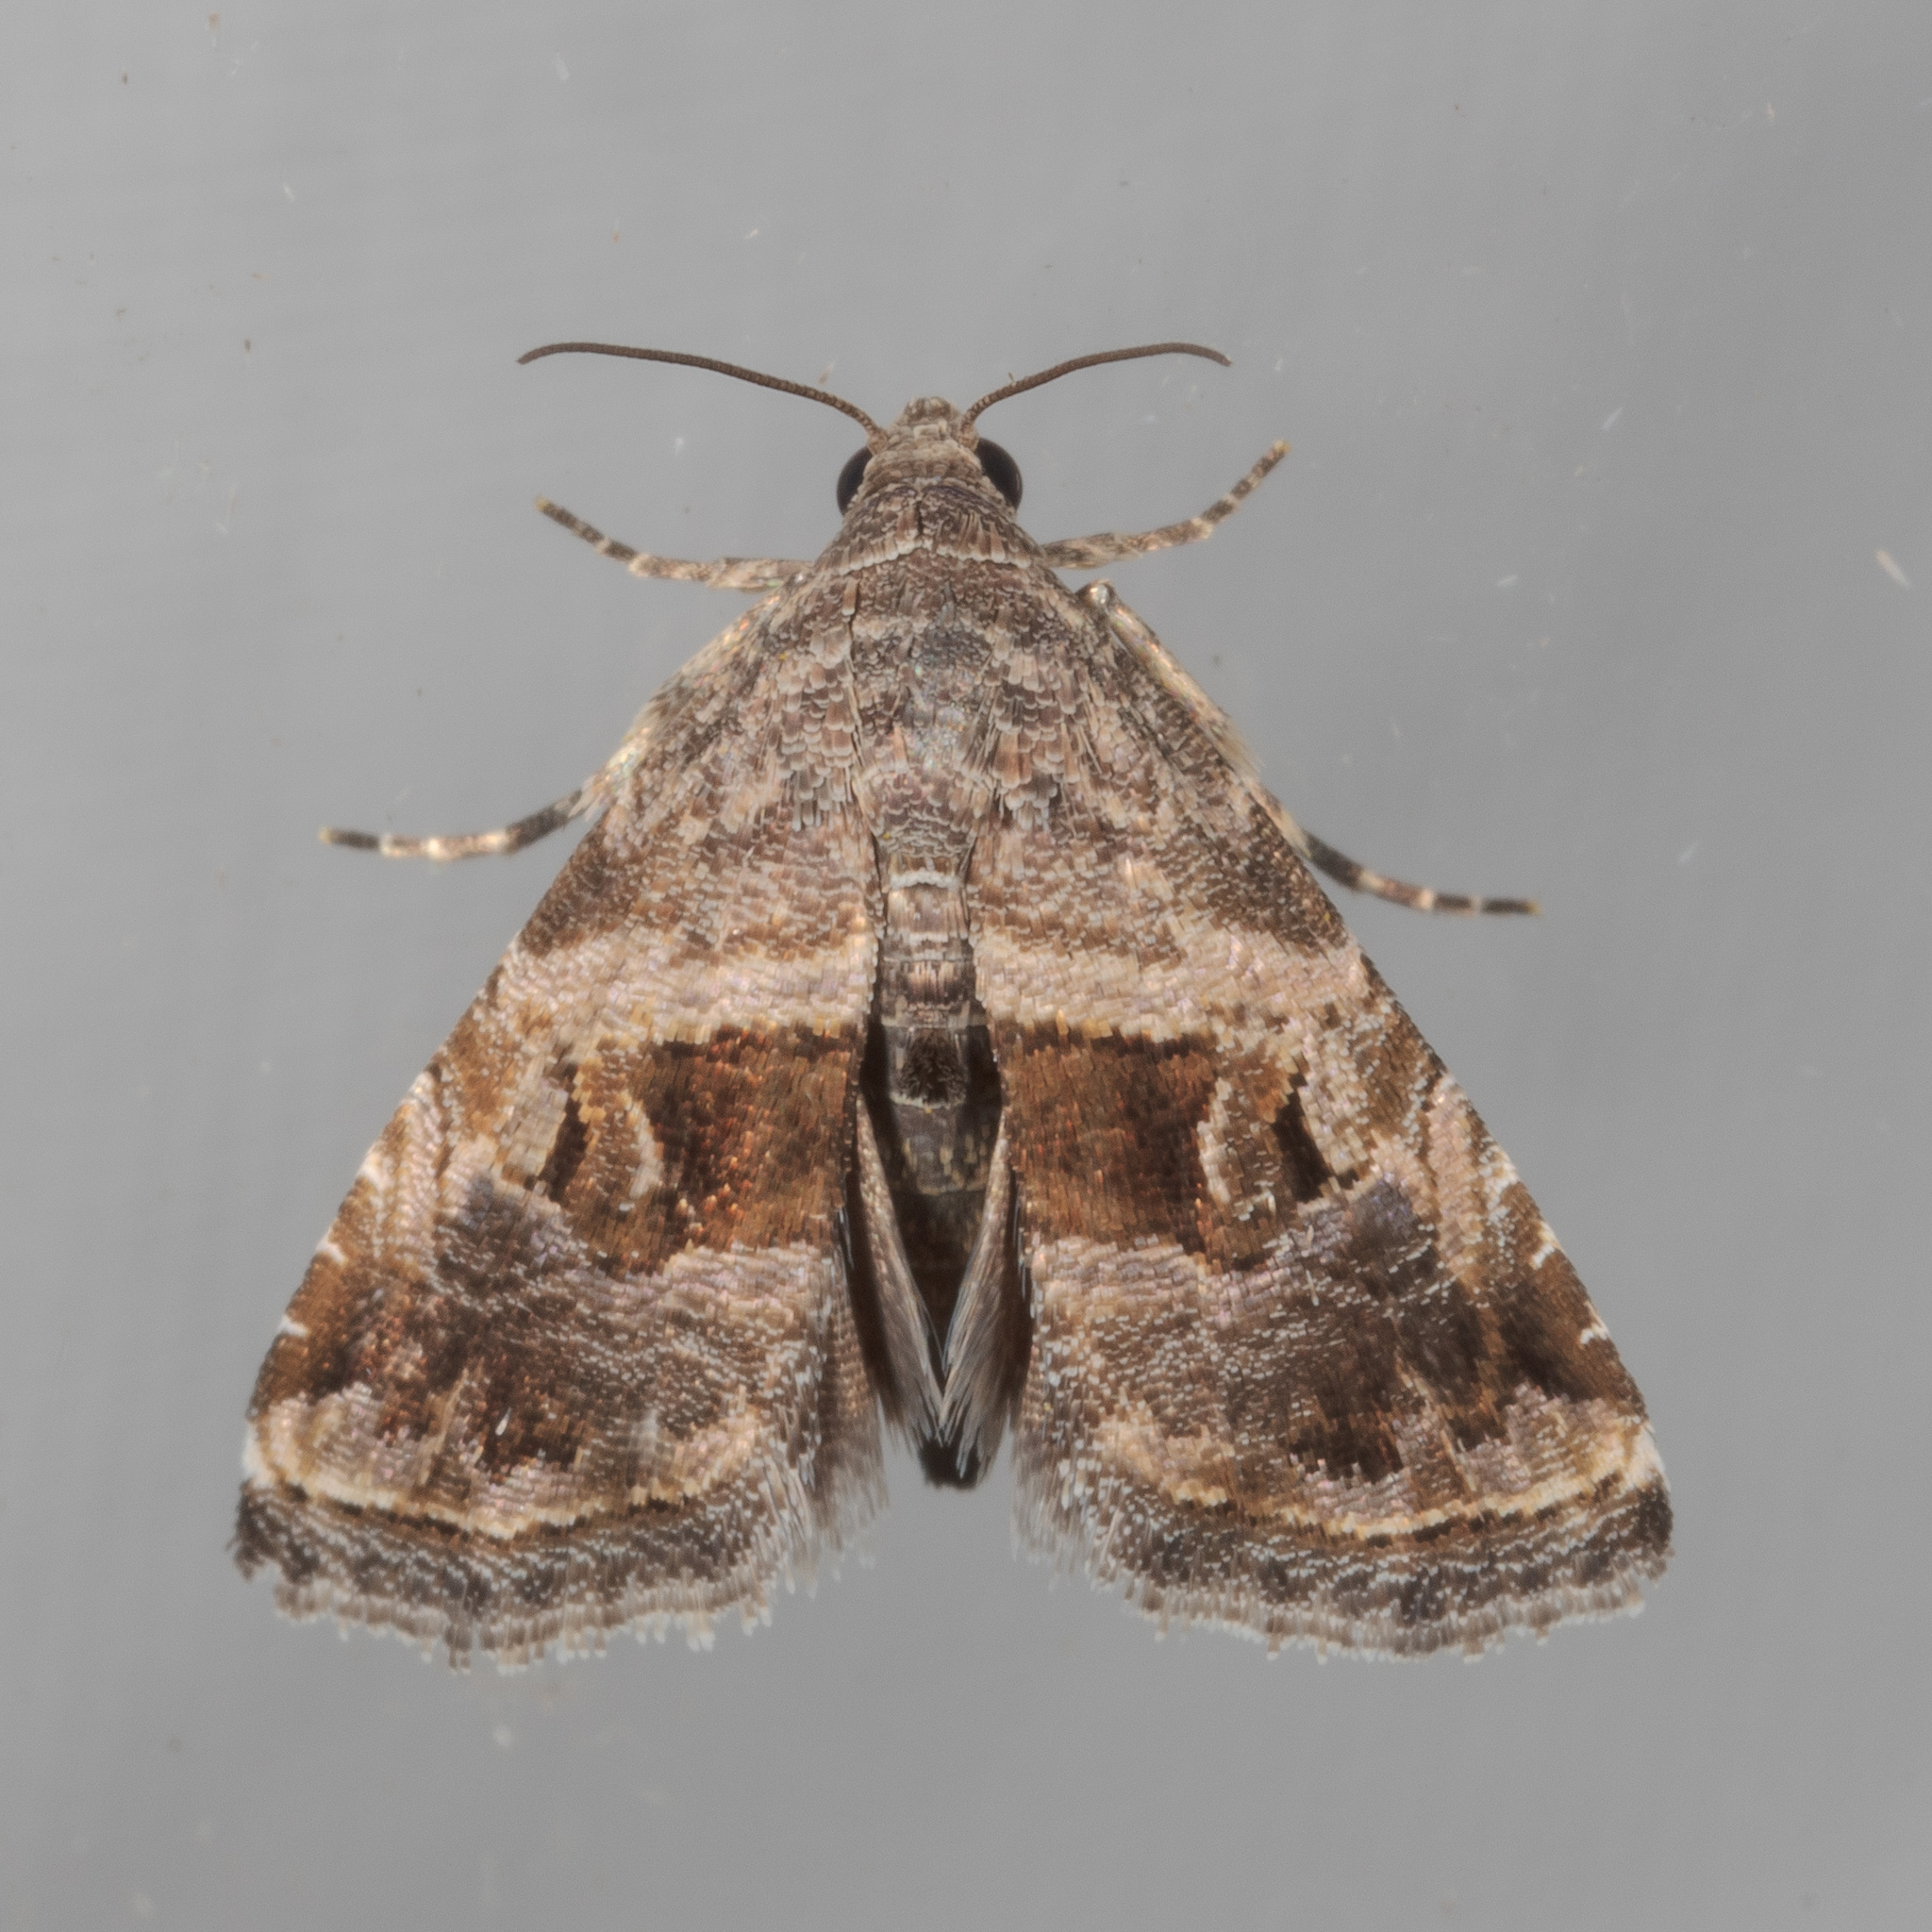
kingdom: Animalia
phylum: Arthropoda
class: Insecta
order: Lepidoptera
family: Noctuidae
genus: Tripudia
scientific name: Tripudia quadrifera
